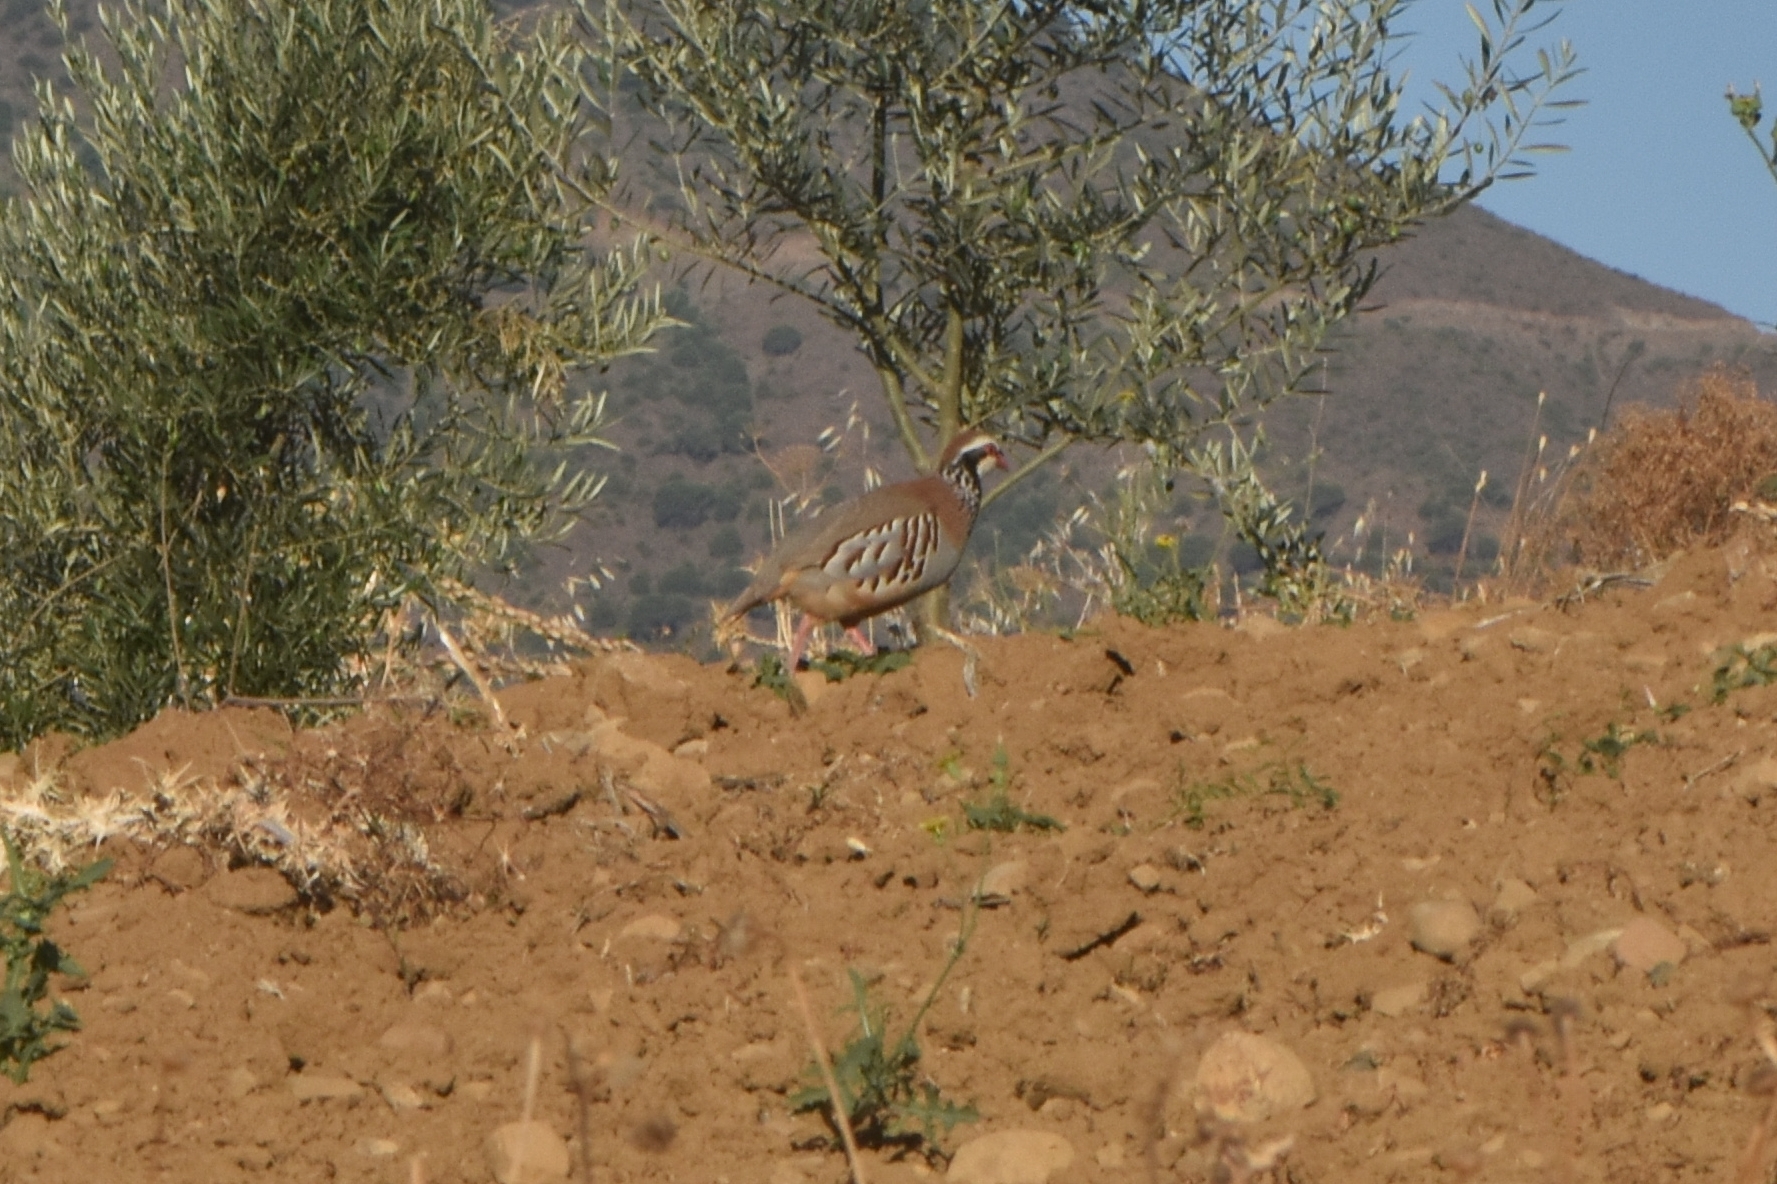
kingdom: Animalia
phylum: Chordata
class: Aves
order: Galliformes
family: Phasianidae
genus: Alectoris
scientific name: Alectoris rufa
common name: Red-legged partridge
